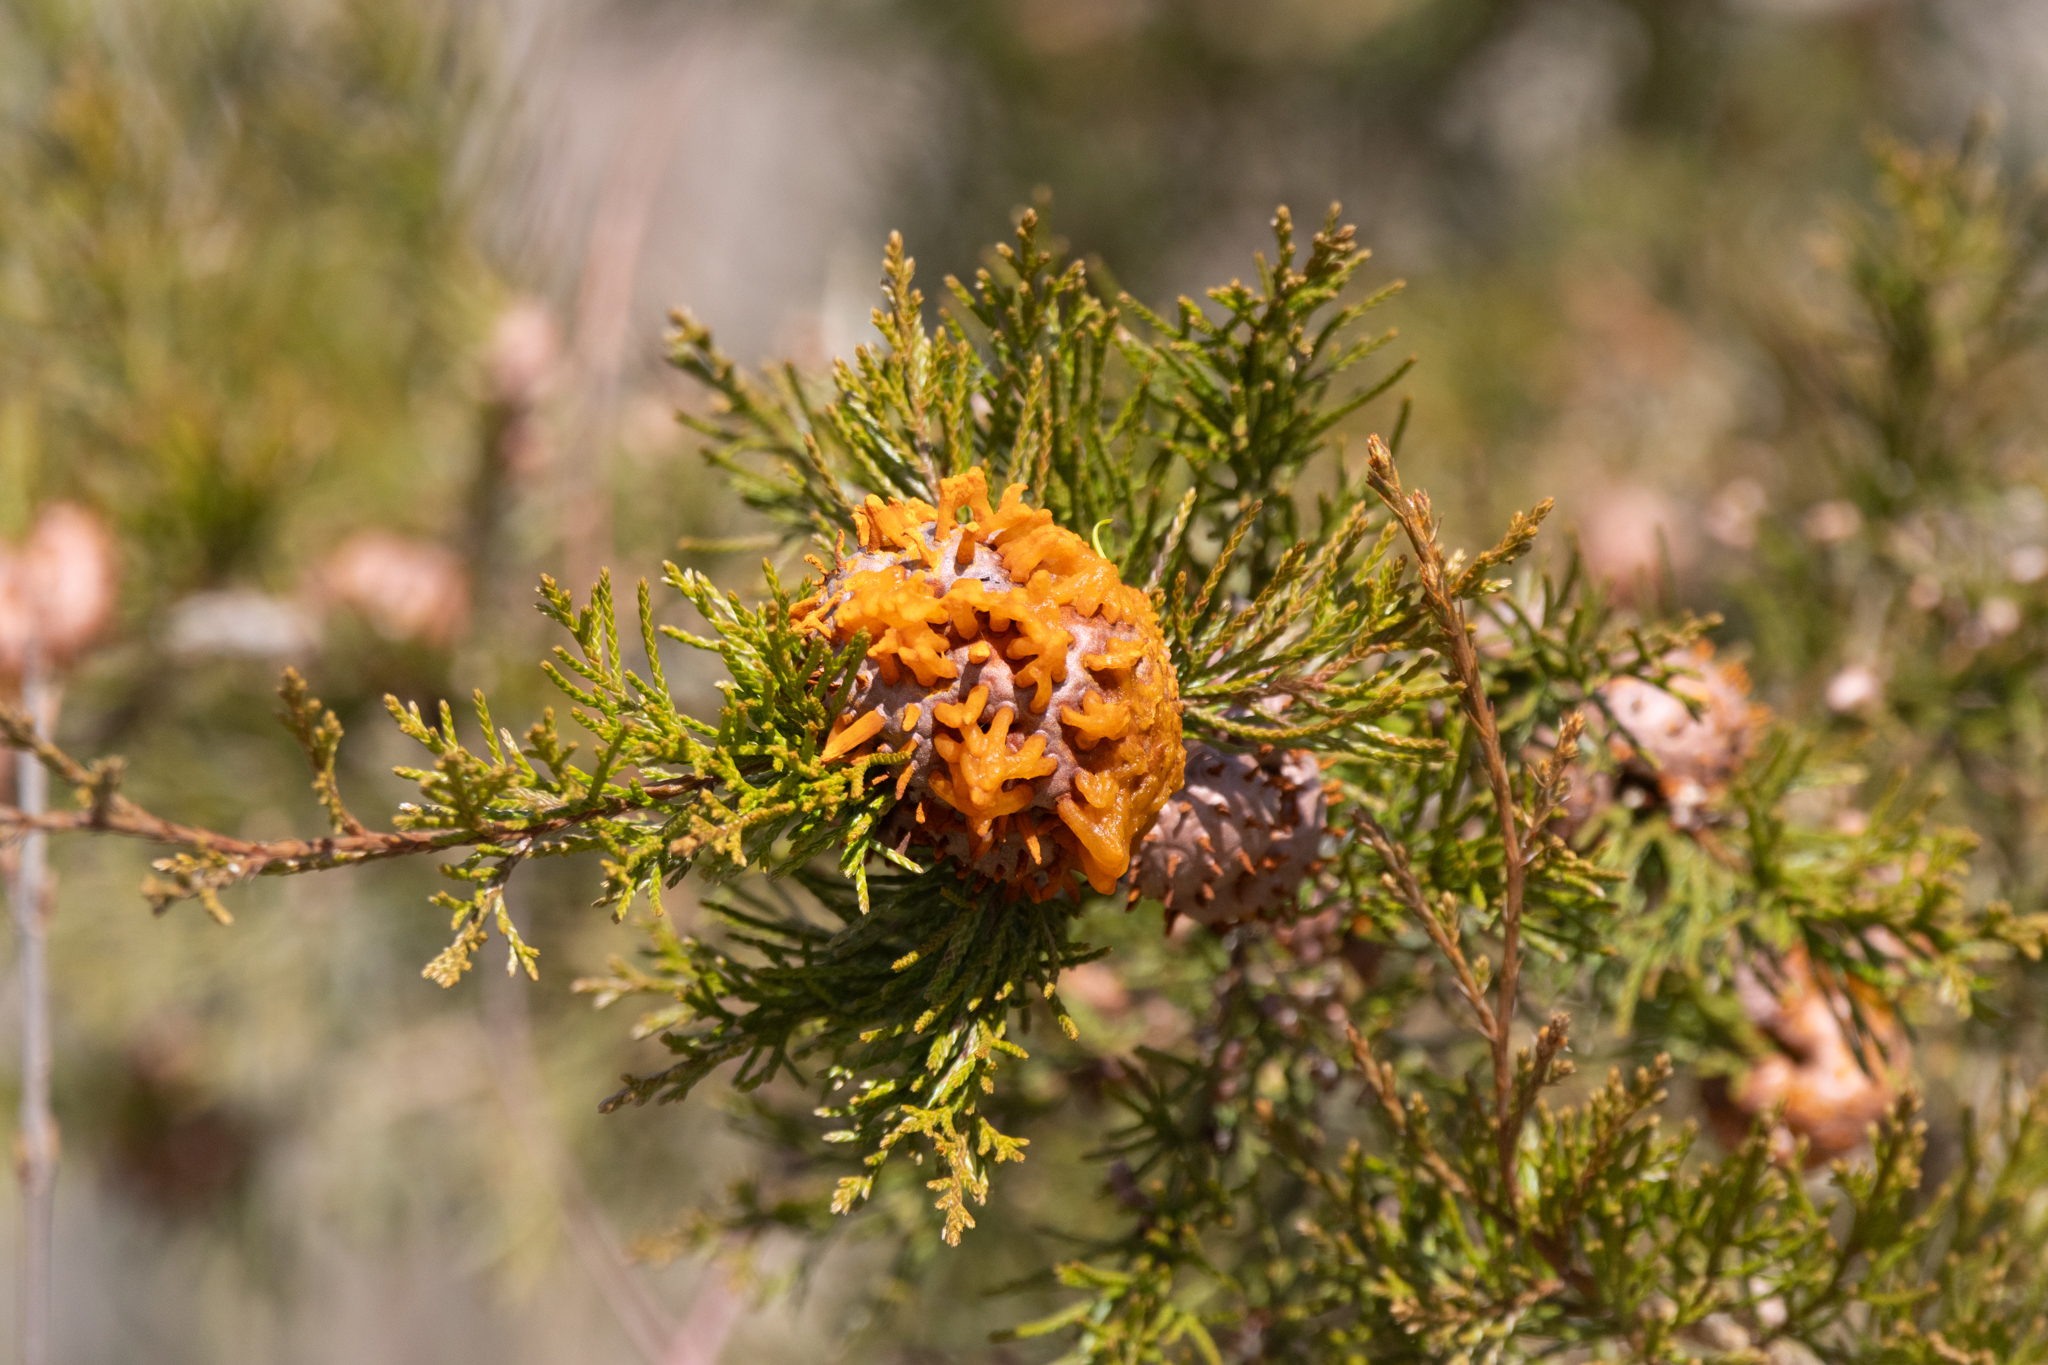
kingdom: Fungi
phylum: Basidiomycota
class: Pucciniomycetes
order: Pucciniales
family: Gymnosporangiaceae
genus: Gymnosporangium
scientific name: Gymnosporangium juniperi-virginianae
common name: Juniper-apple rust
